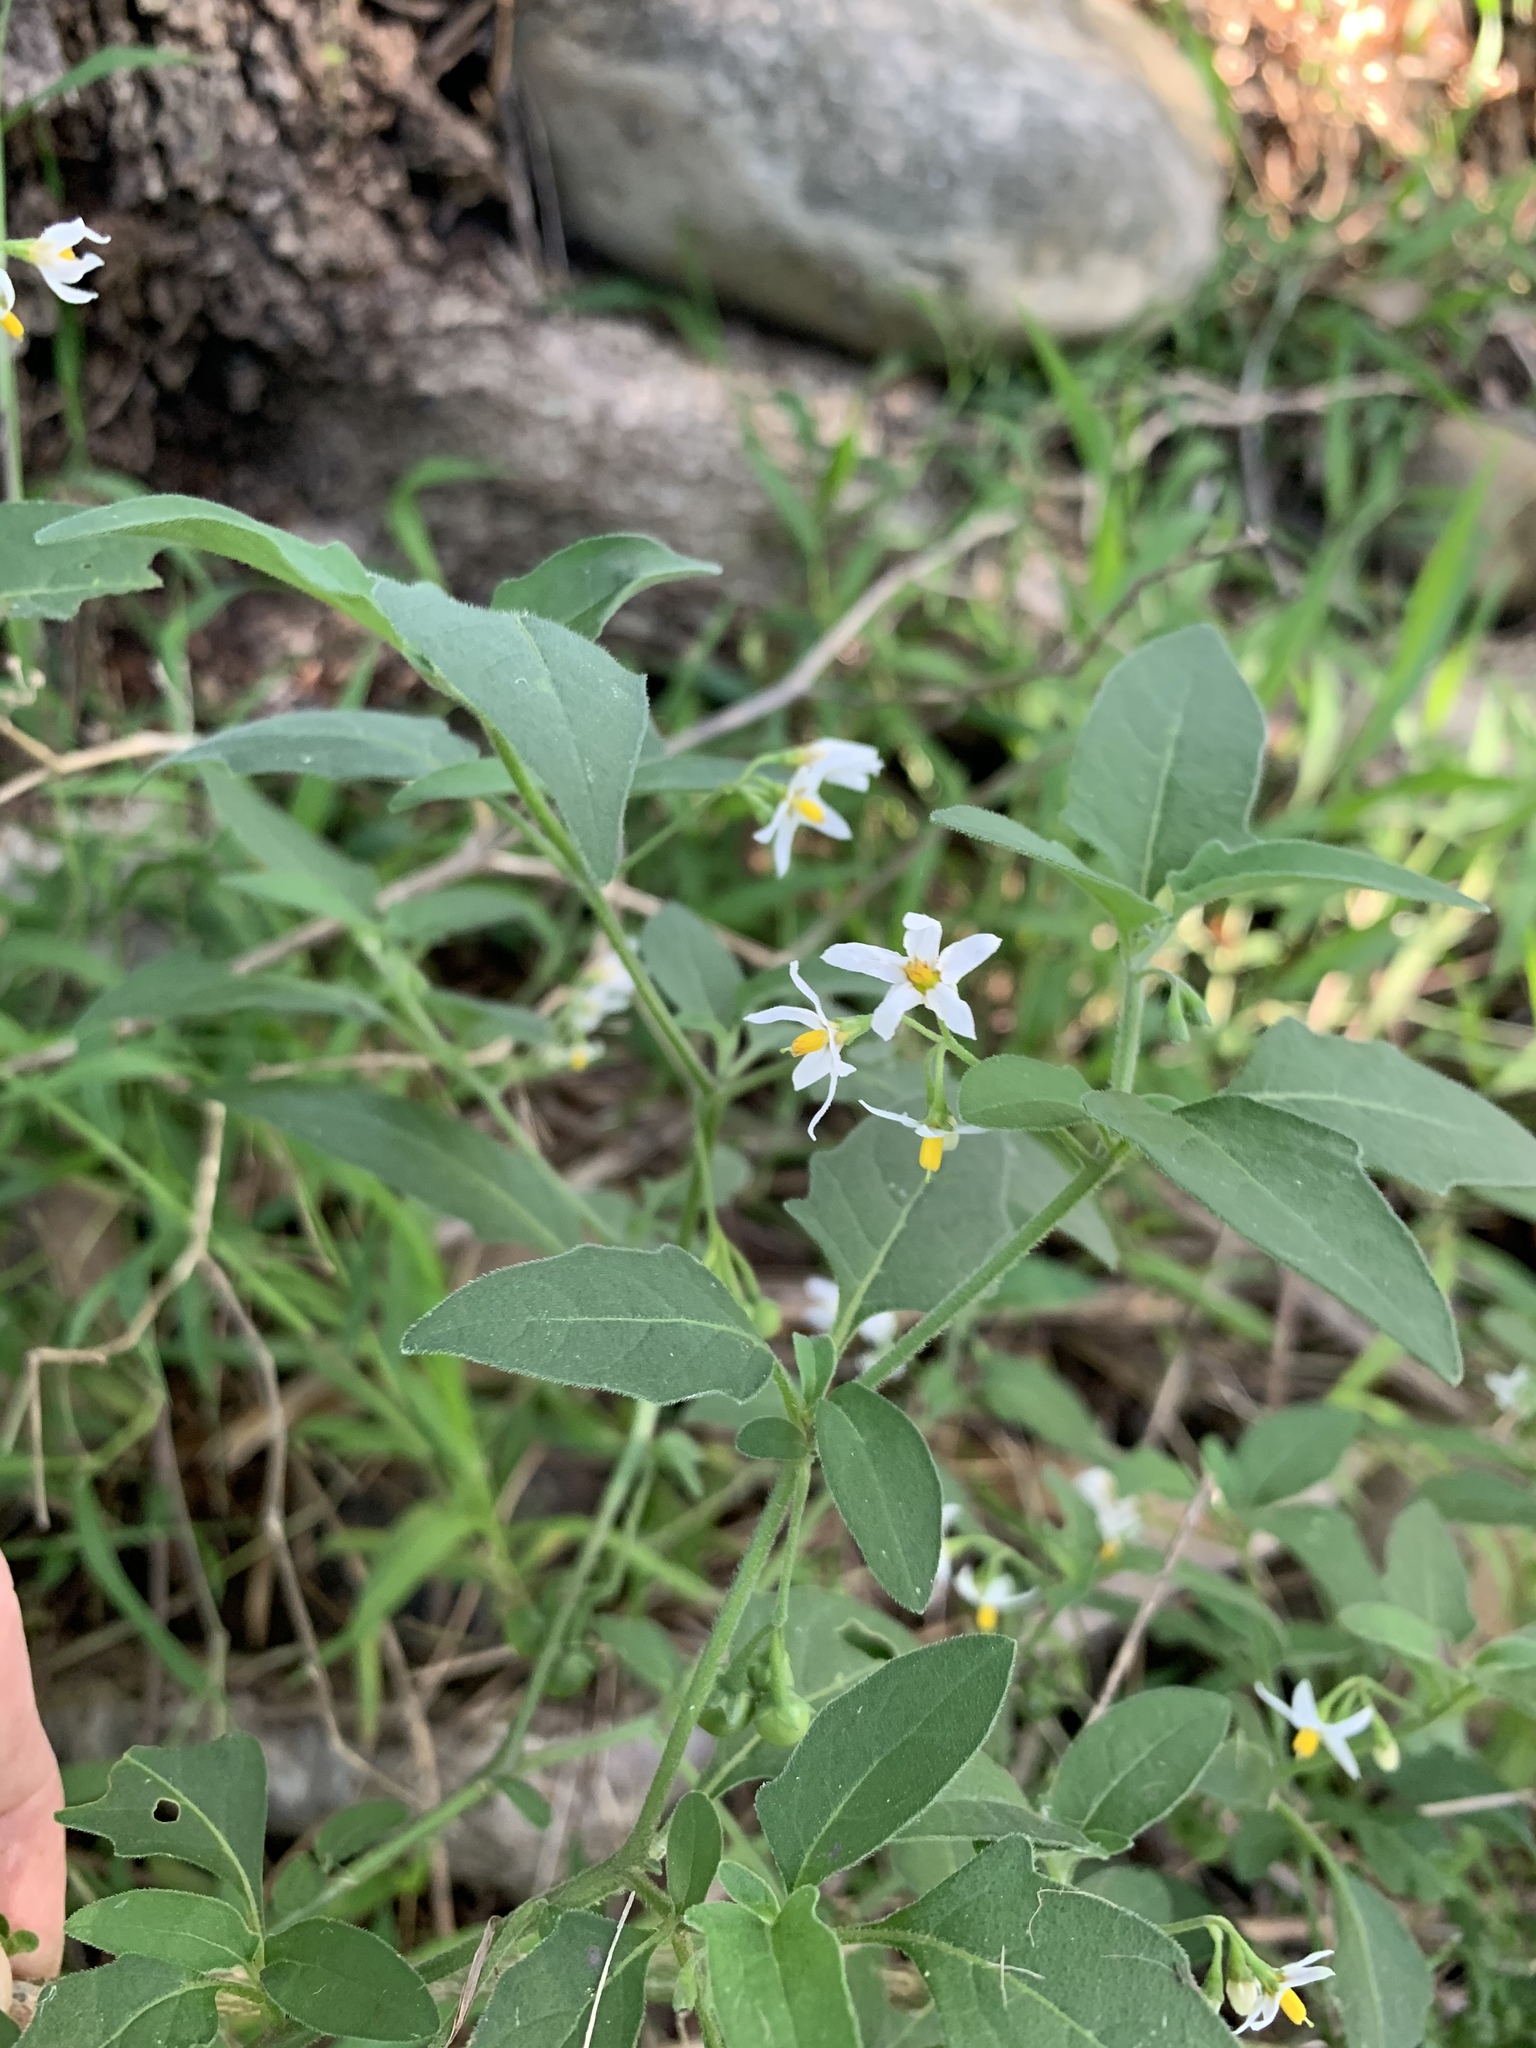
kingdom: Plantae
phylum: Tracheophyta
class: Magnoliopsida
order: Solanales
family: Solanaceae
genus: Solanum
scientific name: Solanum chenopodioides
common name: Tall nightshade
